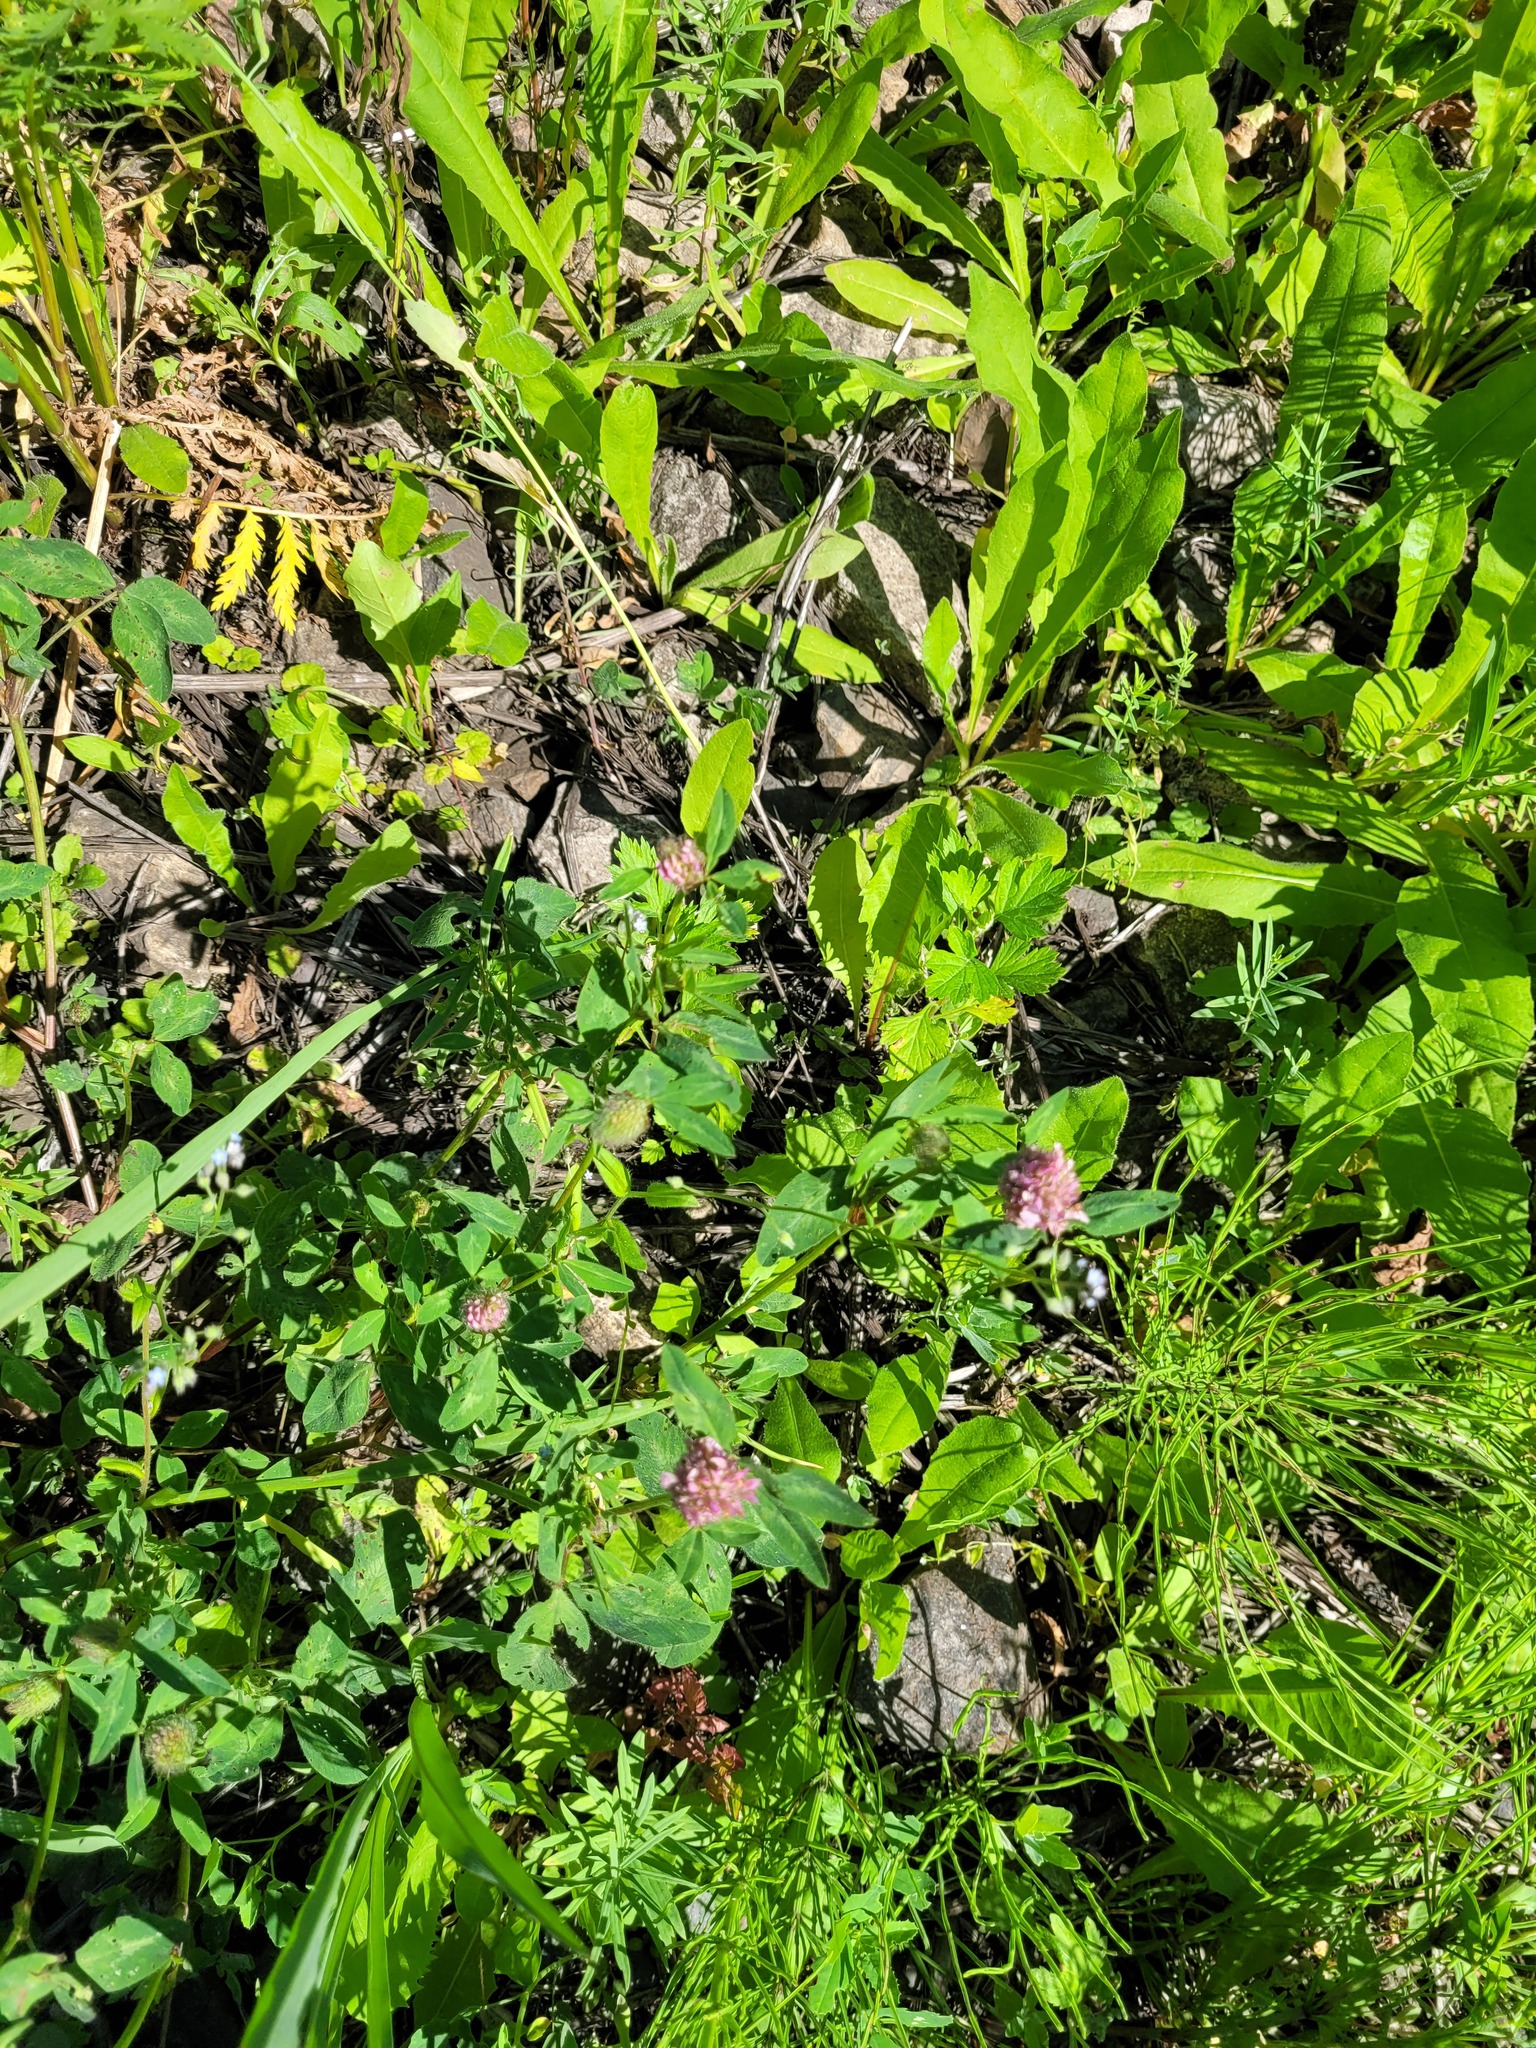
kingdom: Plantae
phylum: Tracheophyta
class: Magnoliopsida
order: Fabales
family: Fabaceae
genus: Trifolium
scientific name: Trifolium pratense
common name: Red clover
